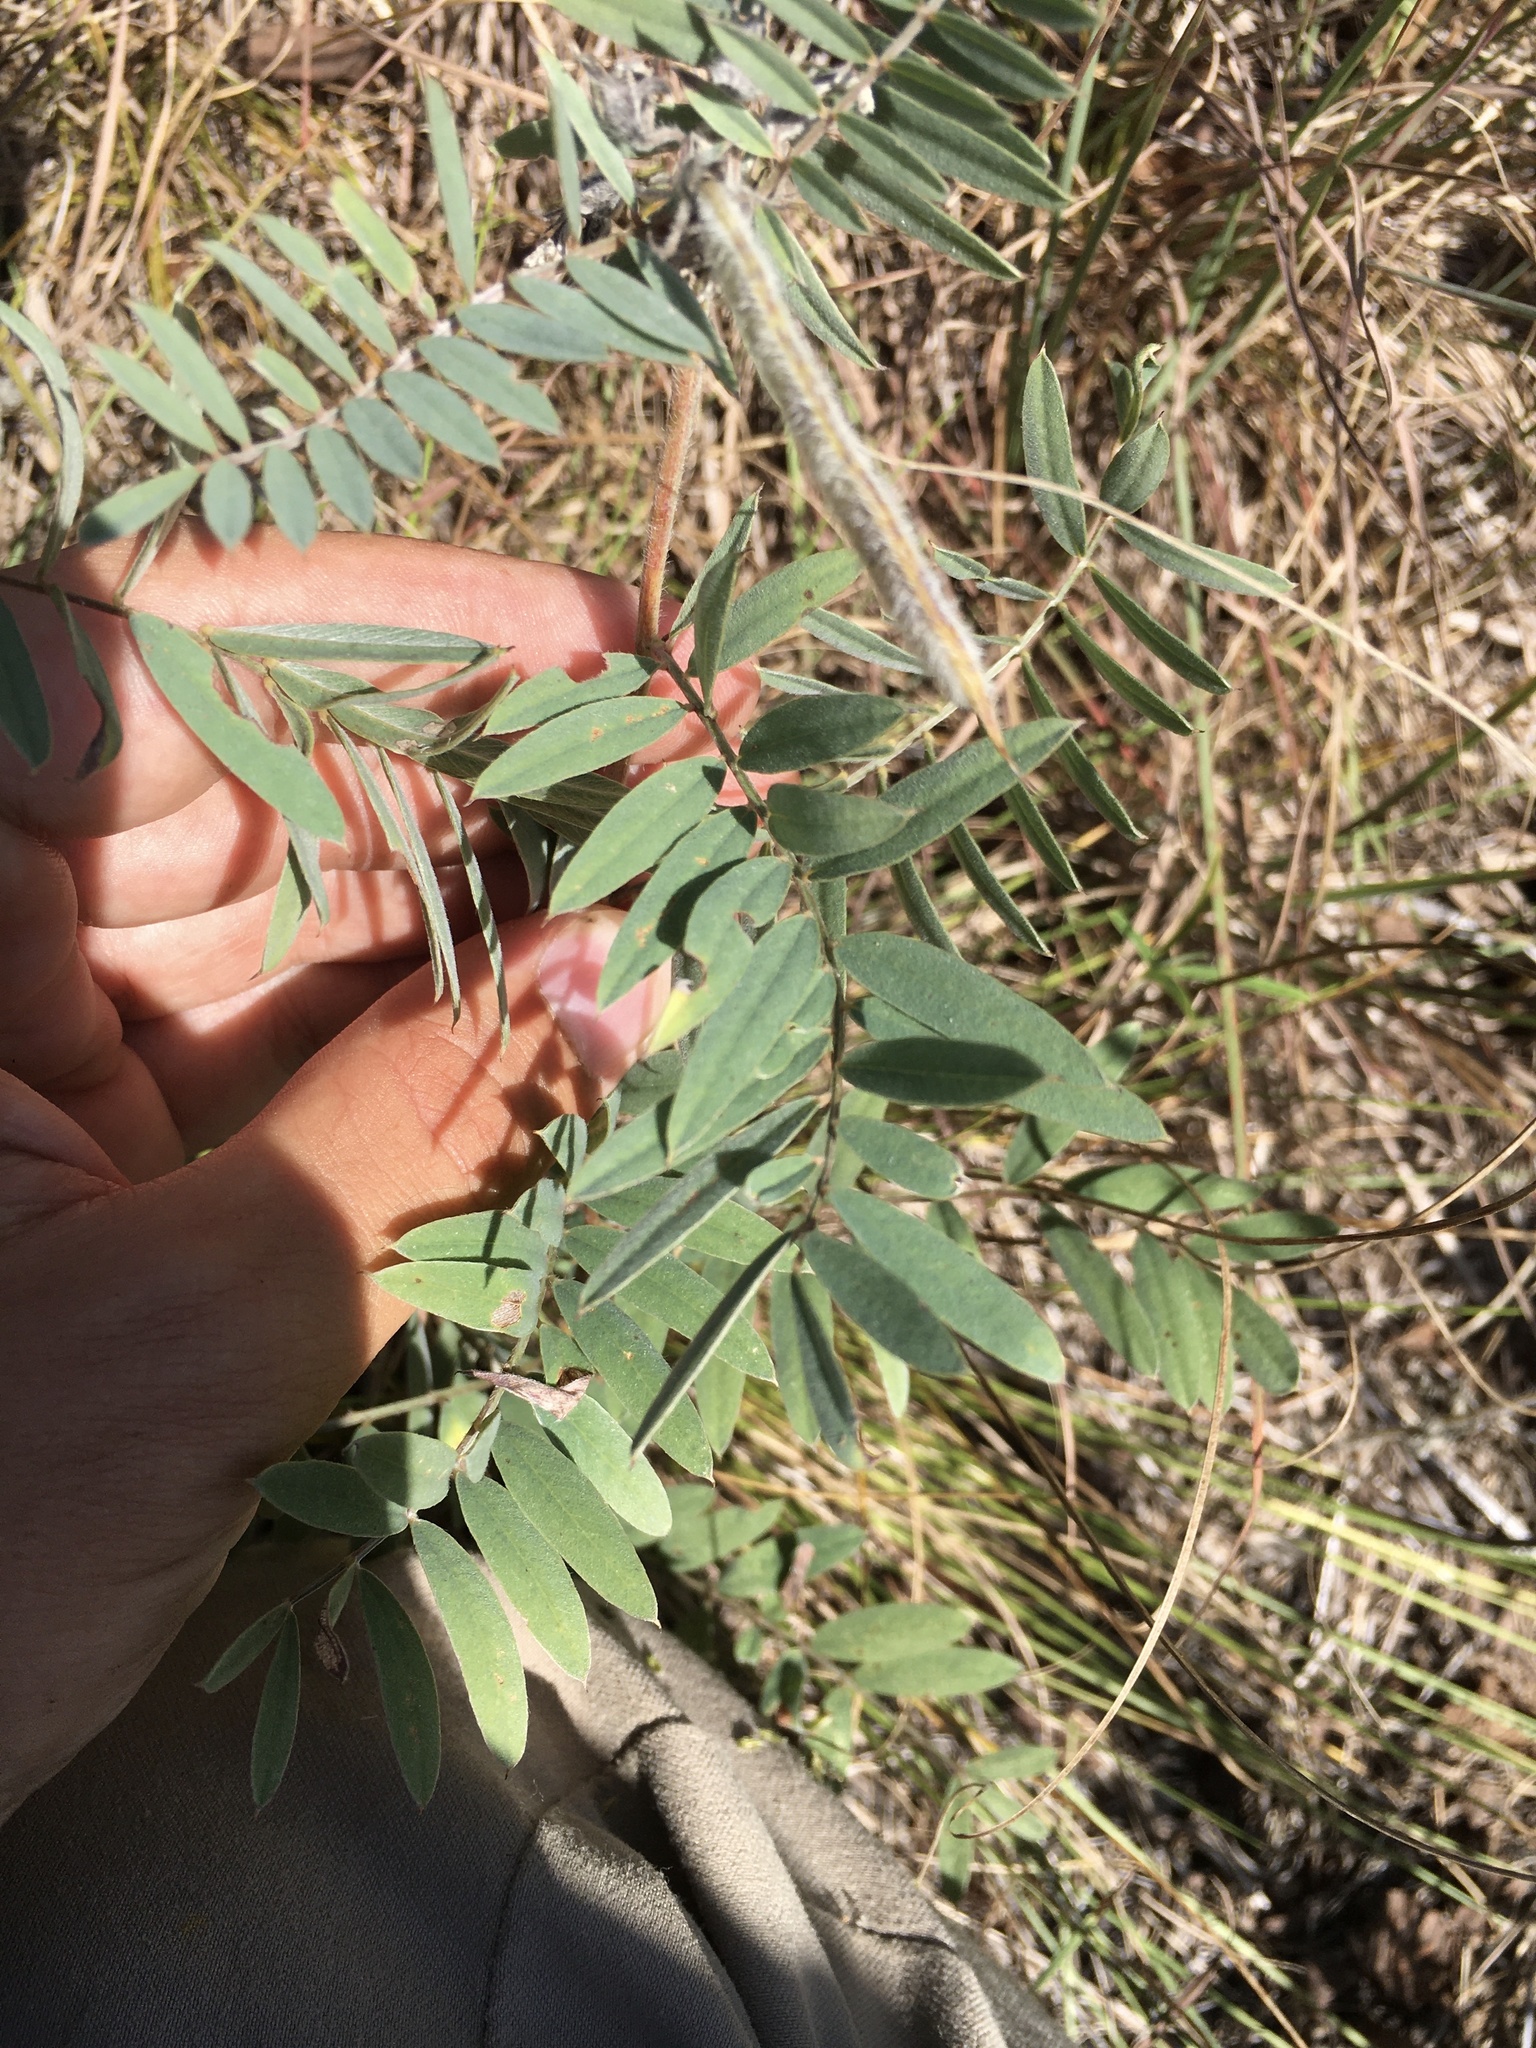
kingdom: Plantae
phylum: Tracheophyta
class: Magnoliopsida
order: Fabales
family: Fabaceae
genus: Tephrosia
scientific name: Tephrosia virginiana
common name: Rabbit-pea
